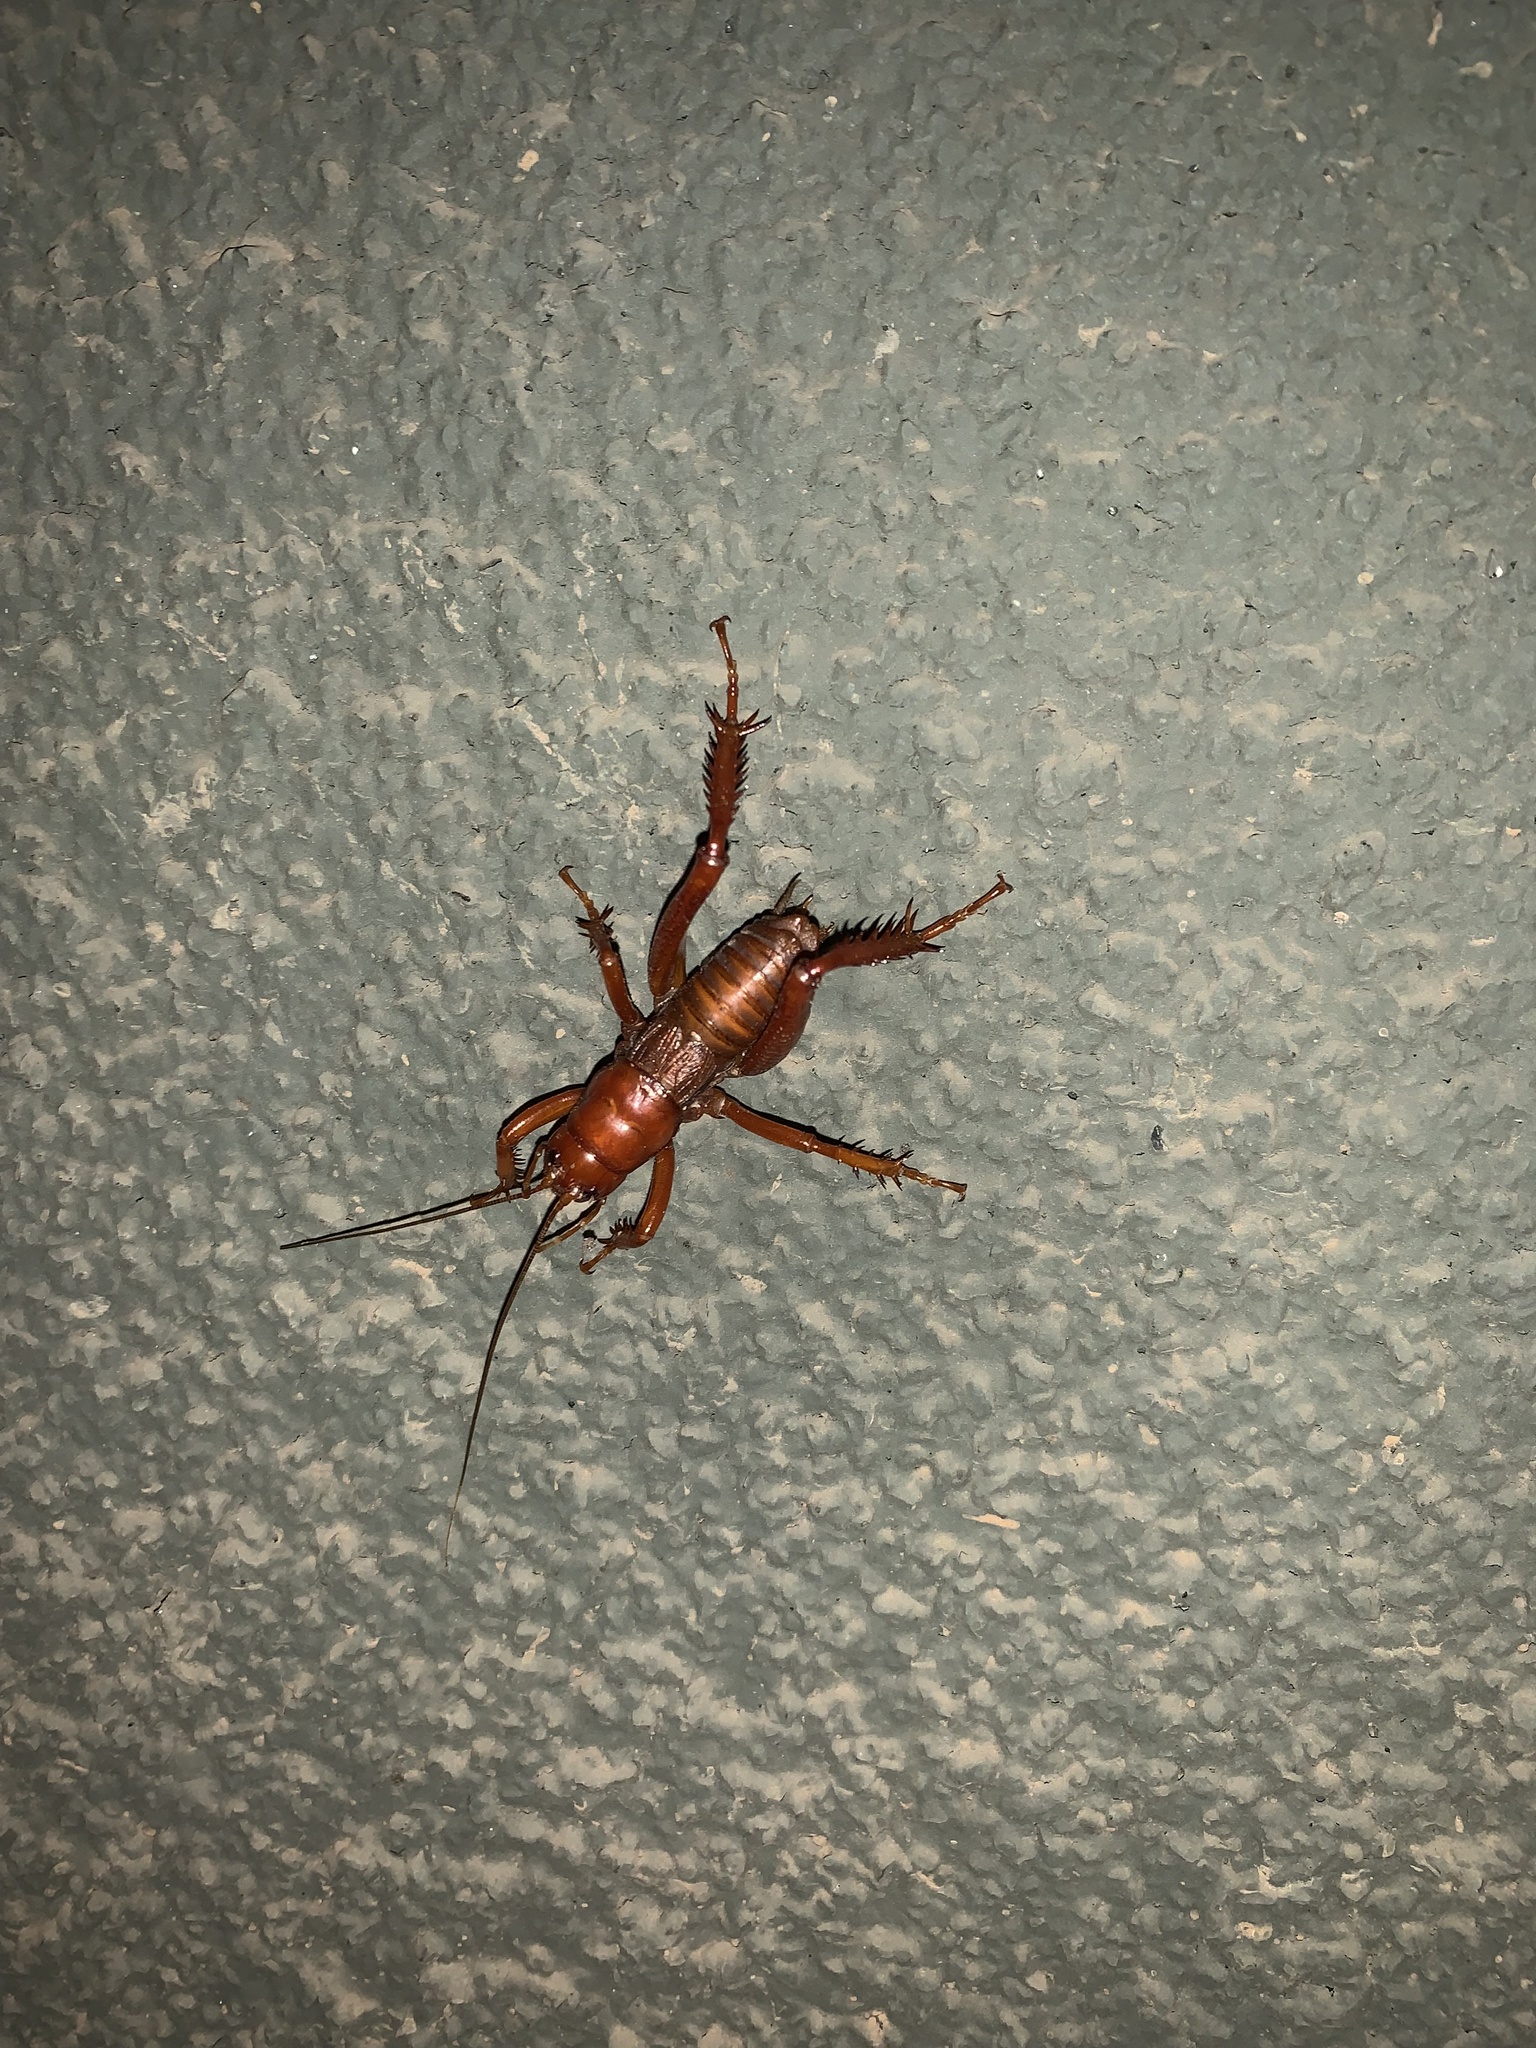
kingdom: Animalia
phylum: Arthropoda
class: Insecta
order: Orthoptera
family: Anostostomatidae
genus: Cratomelus
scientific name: Cratomelus armatus
